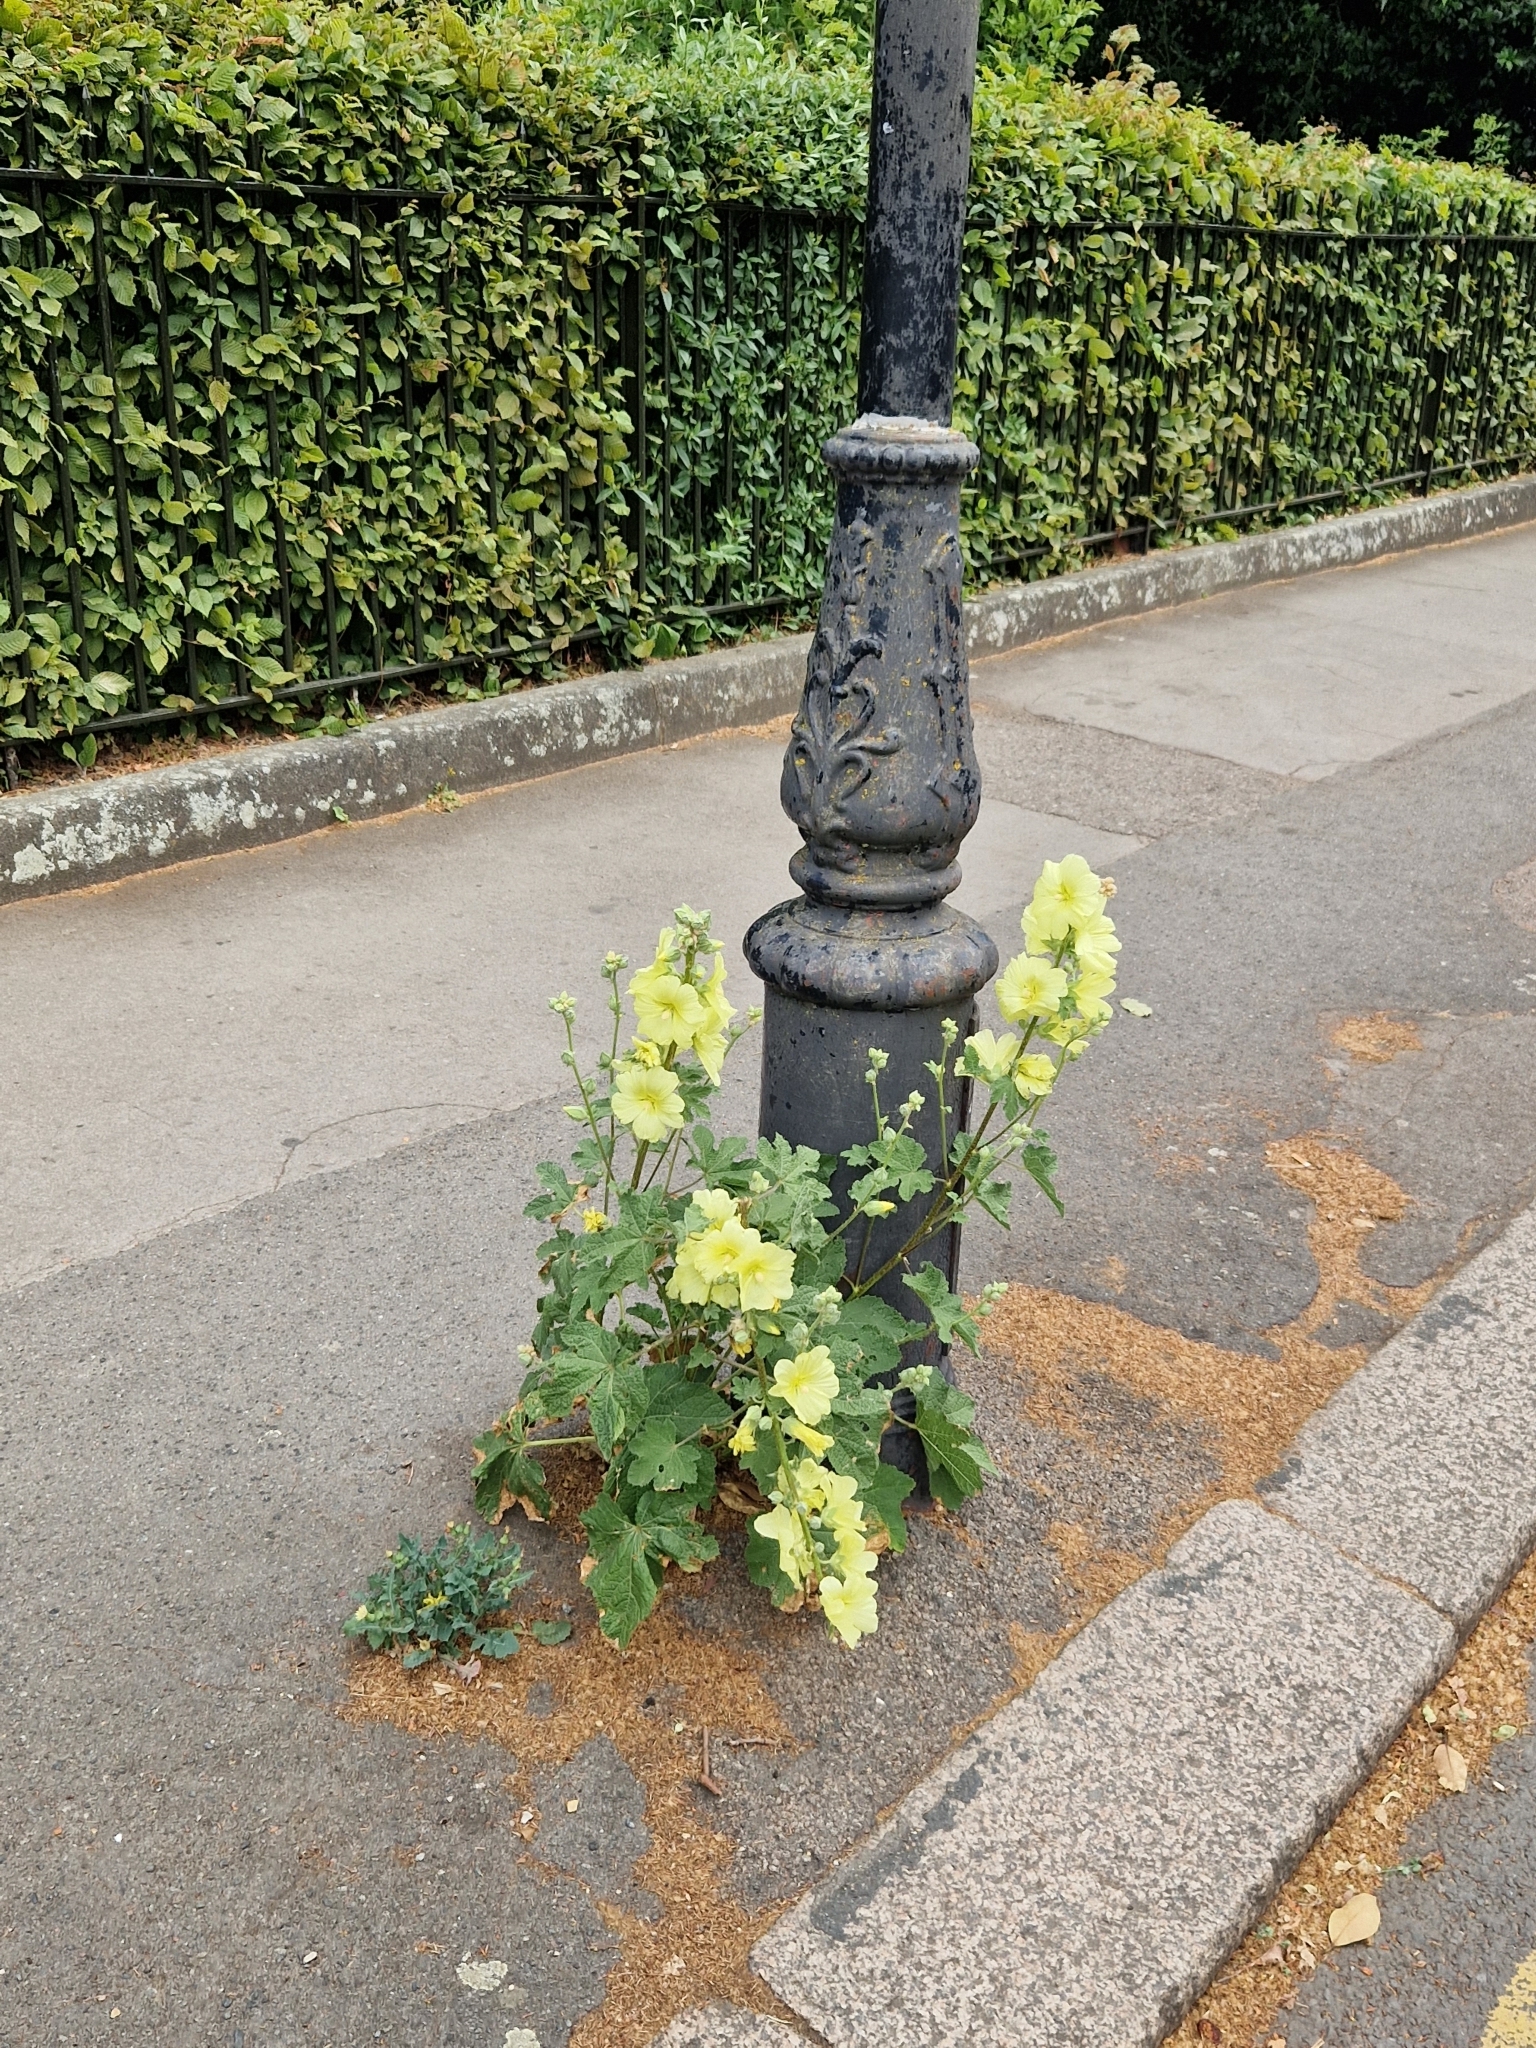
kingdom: Plantae
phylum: Tracheophyta
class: Magnoliopsida
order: Malvales
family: Malvaceae
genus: Alcea
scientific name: Alcea rosea
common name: Hollyhock
